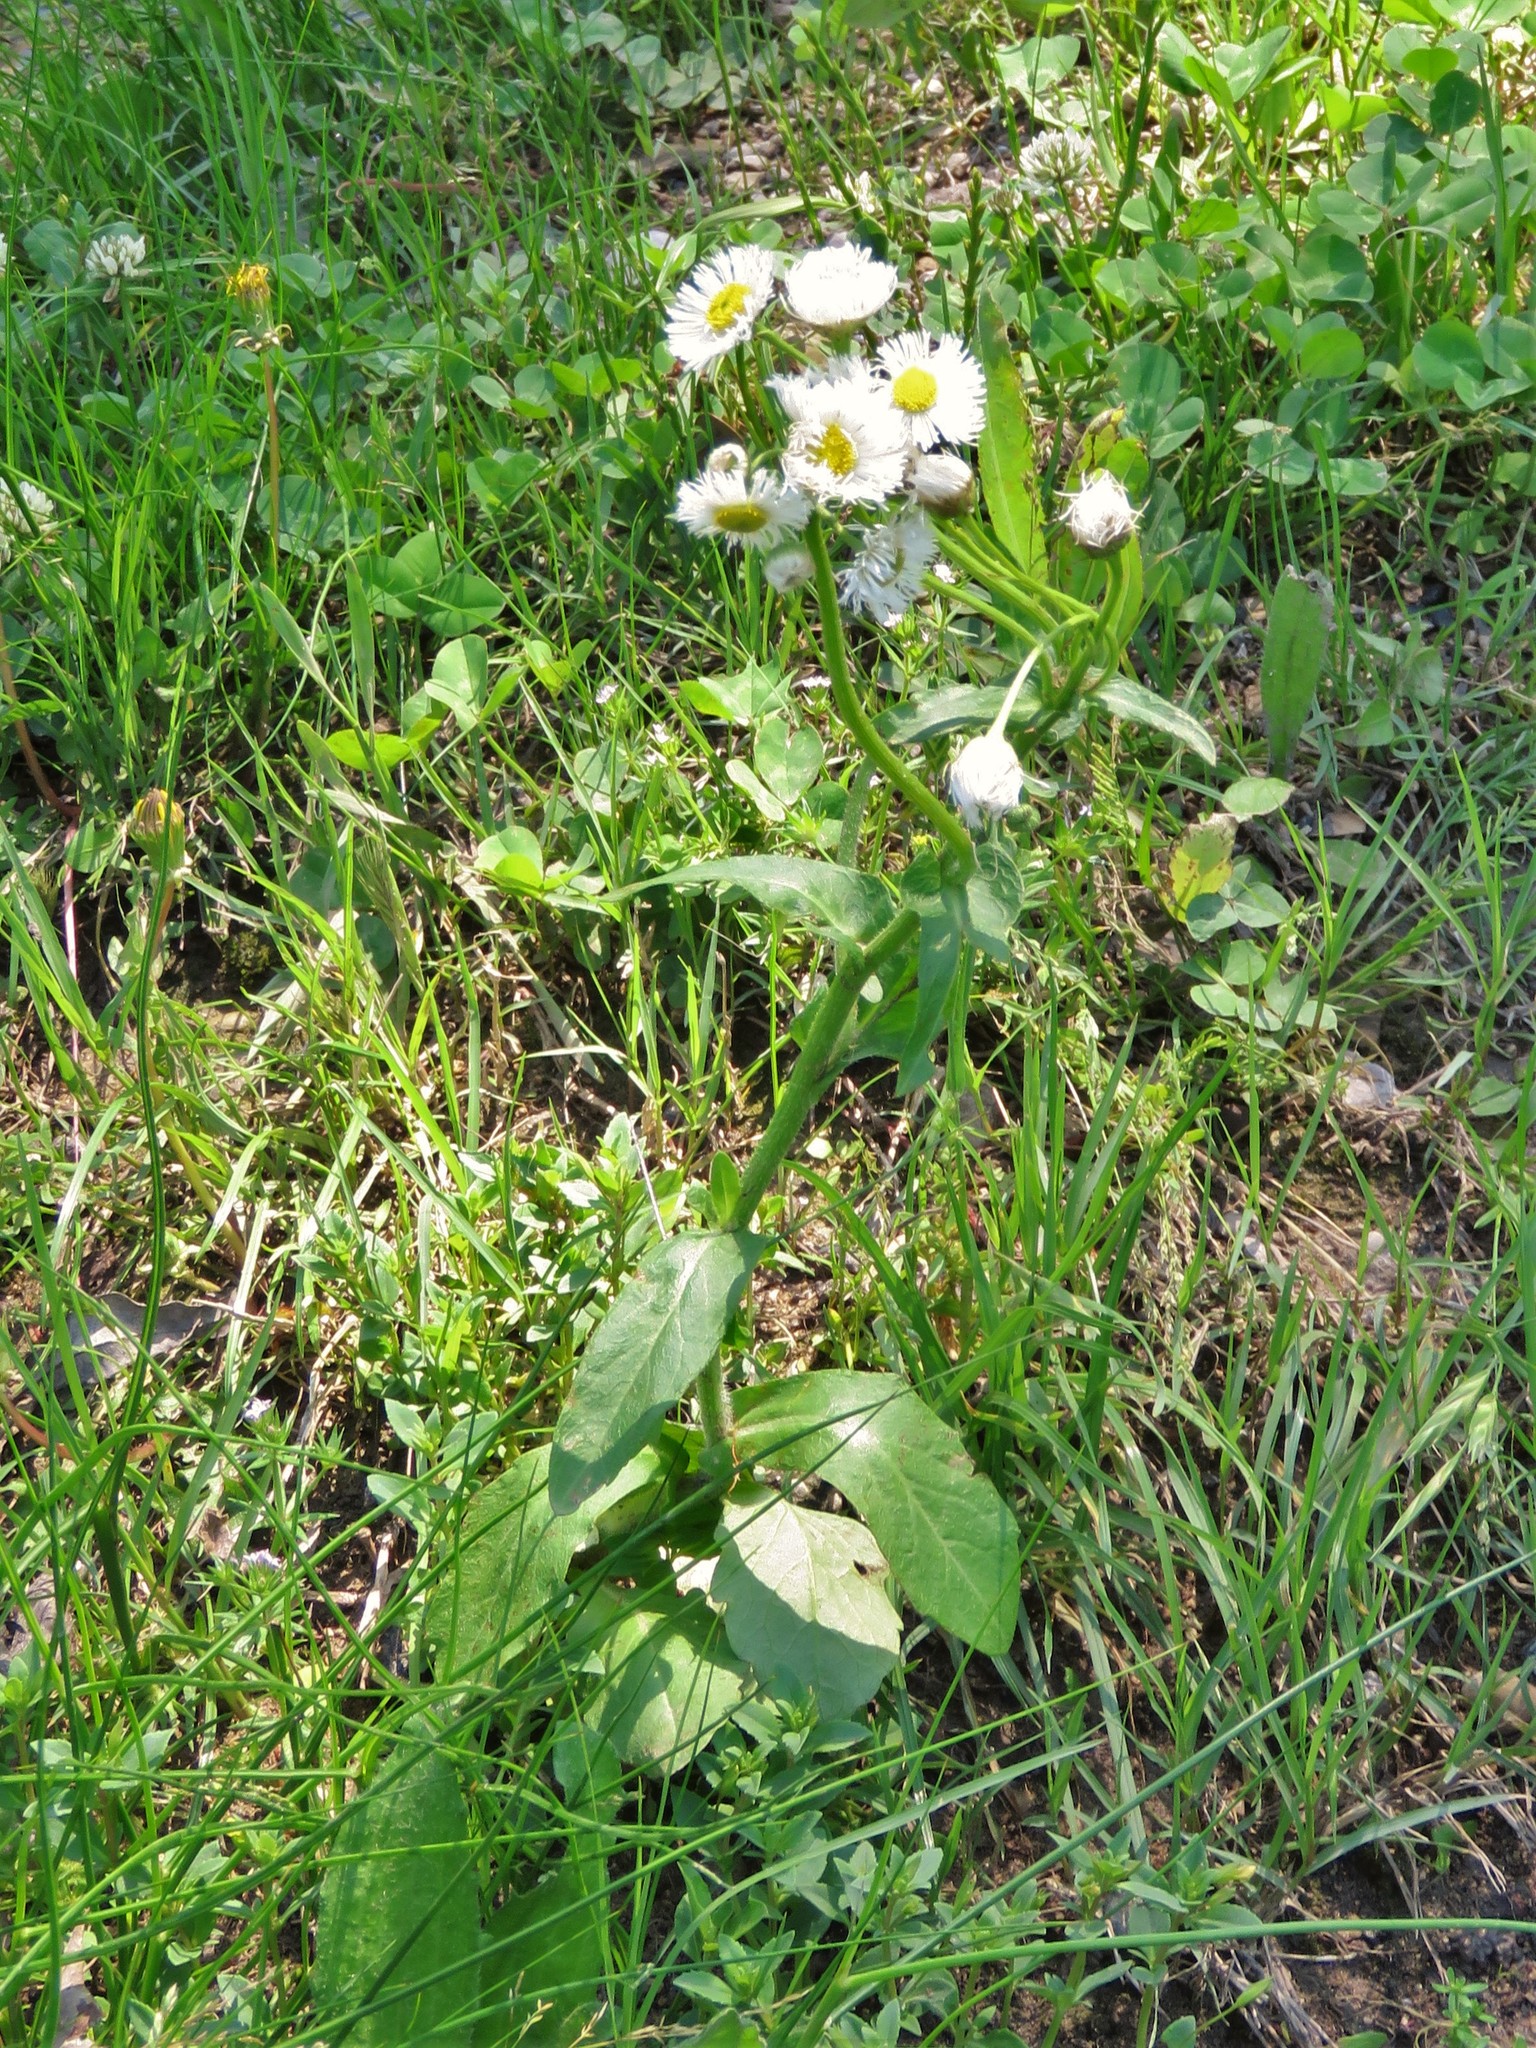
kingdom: Plantae
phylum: Tracheophyta
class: Magnoliopsida
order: Asterales
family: Asteraceae
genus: Erigeron
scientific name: Erigeron philadelphicus
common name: Robin's-plantain
